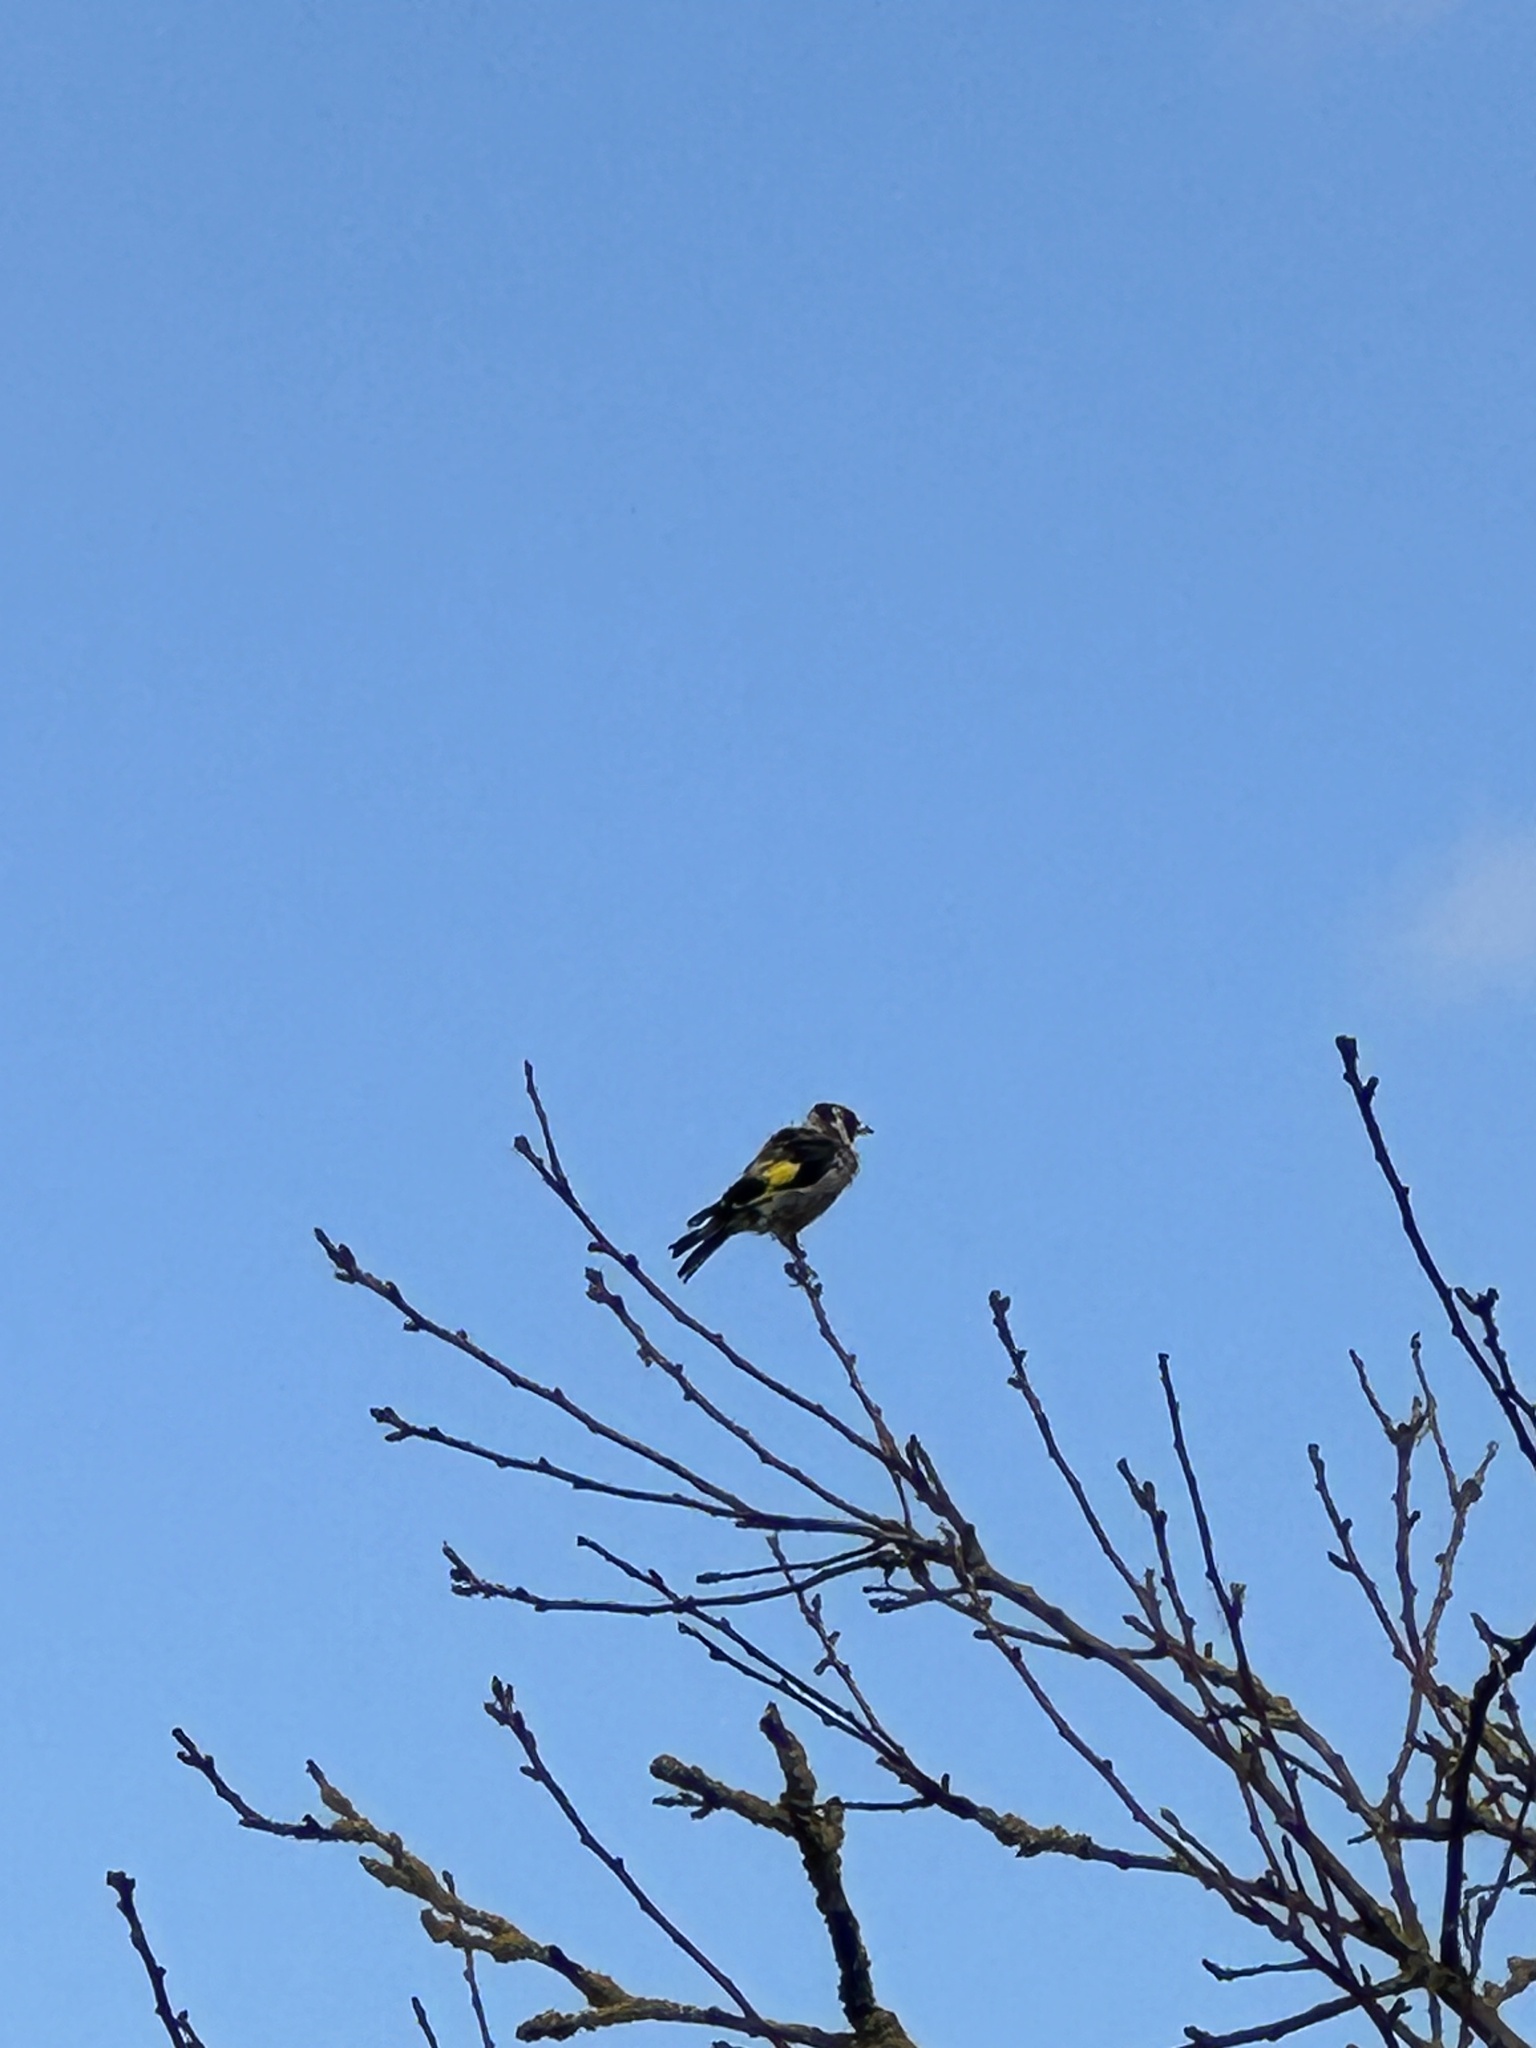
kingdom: Animalia
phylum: Chordata
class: Aves
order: Passeriformes
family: Fringillidae
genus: Carduelis
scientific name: Carduelis carduelis
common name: European goldfinch
